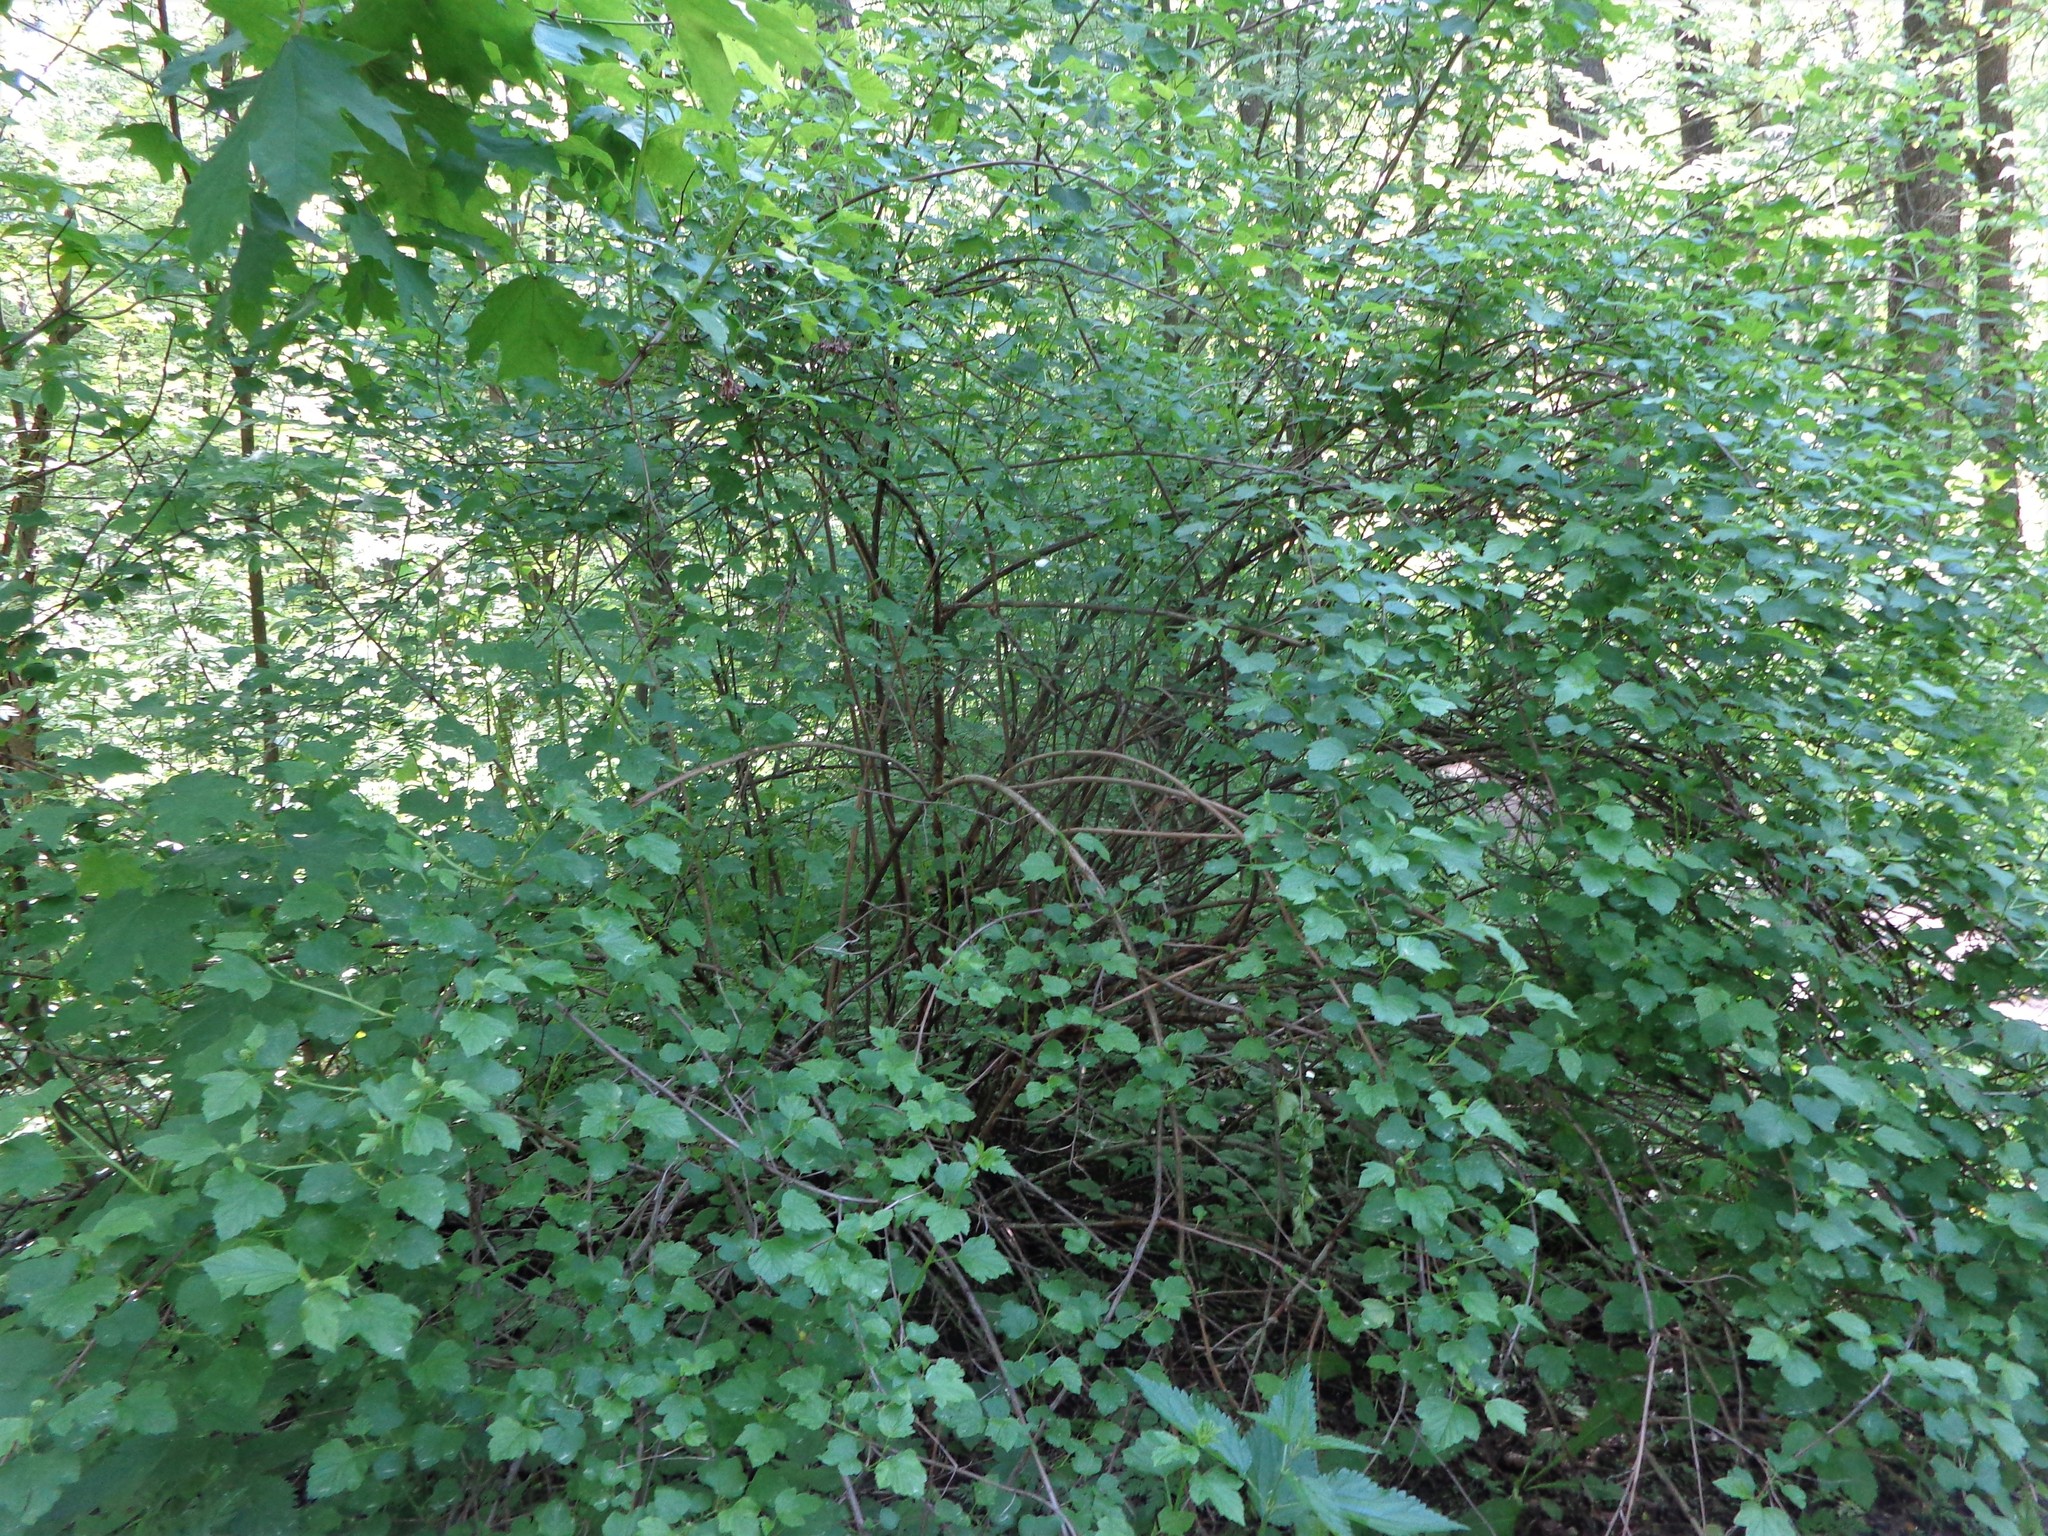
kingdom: Plantae
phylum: Tracheophyta
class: Magnoliopsida
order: Rosales
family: Rosaceae
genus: Physocarpus
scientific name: Physocarpus opulifolius
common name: Ninebark
